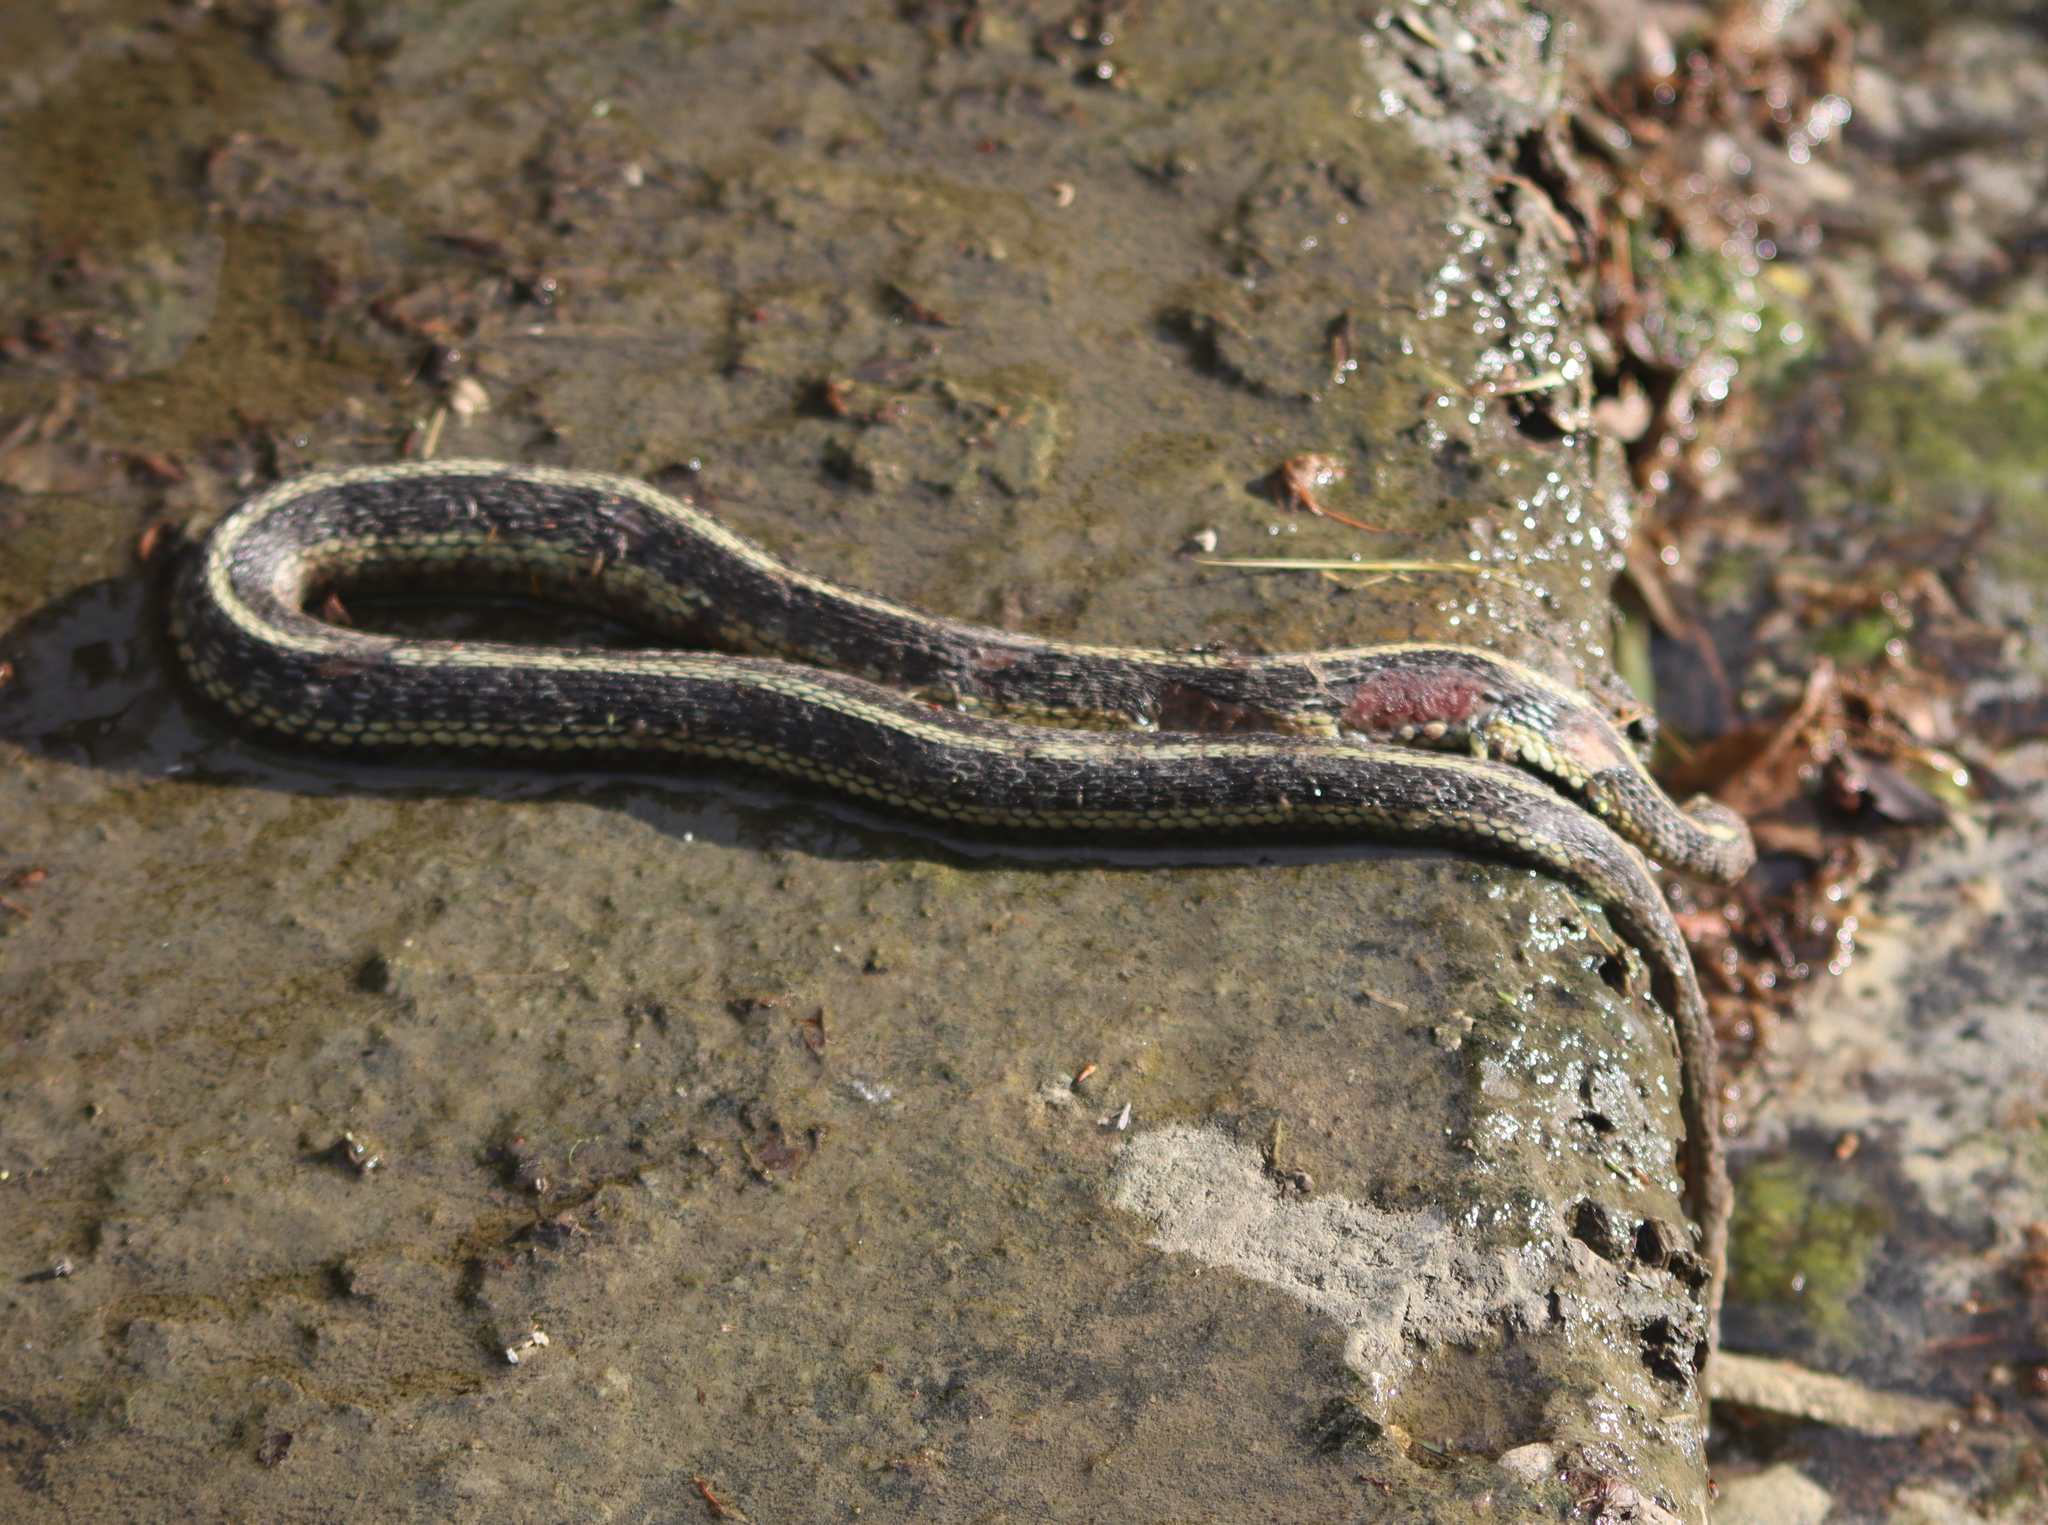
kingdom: Animalia
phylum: Chordata
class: Squamata
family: Colubridae
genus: Thamnophis
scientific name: Thamnophis sirtalis
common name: Common garter snake
